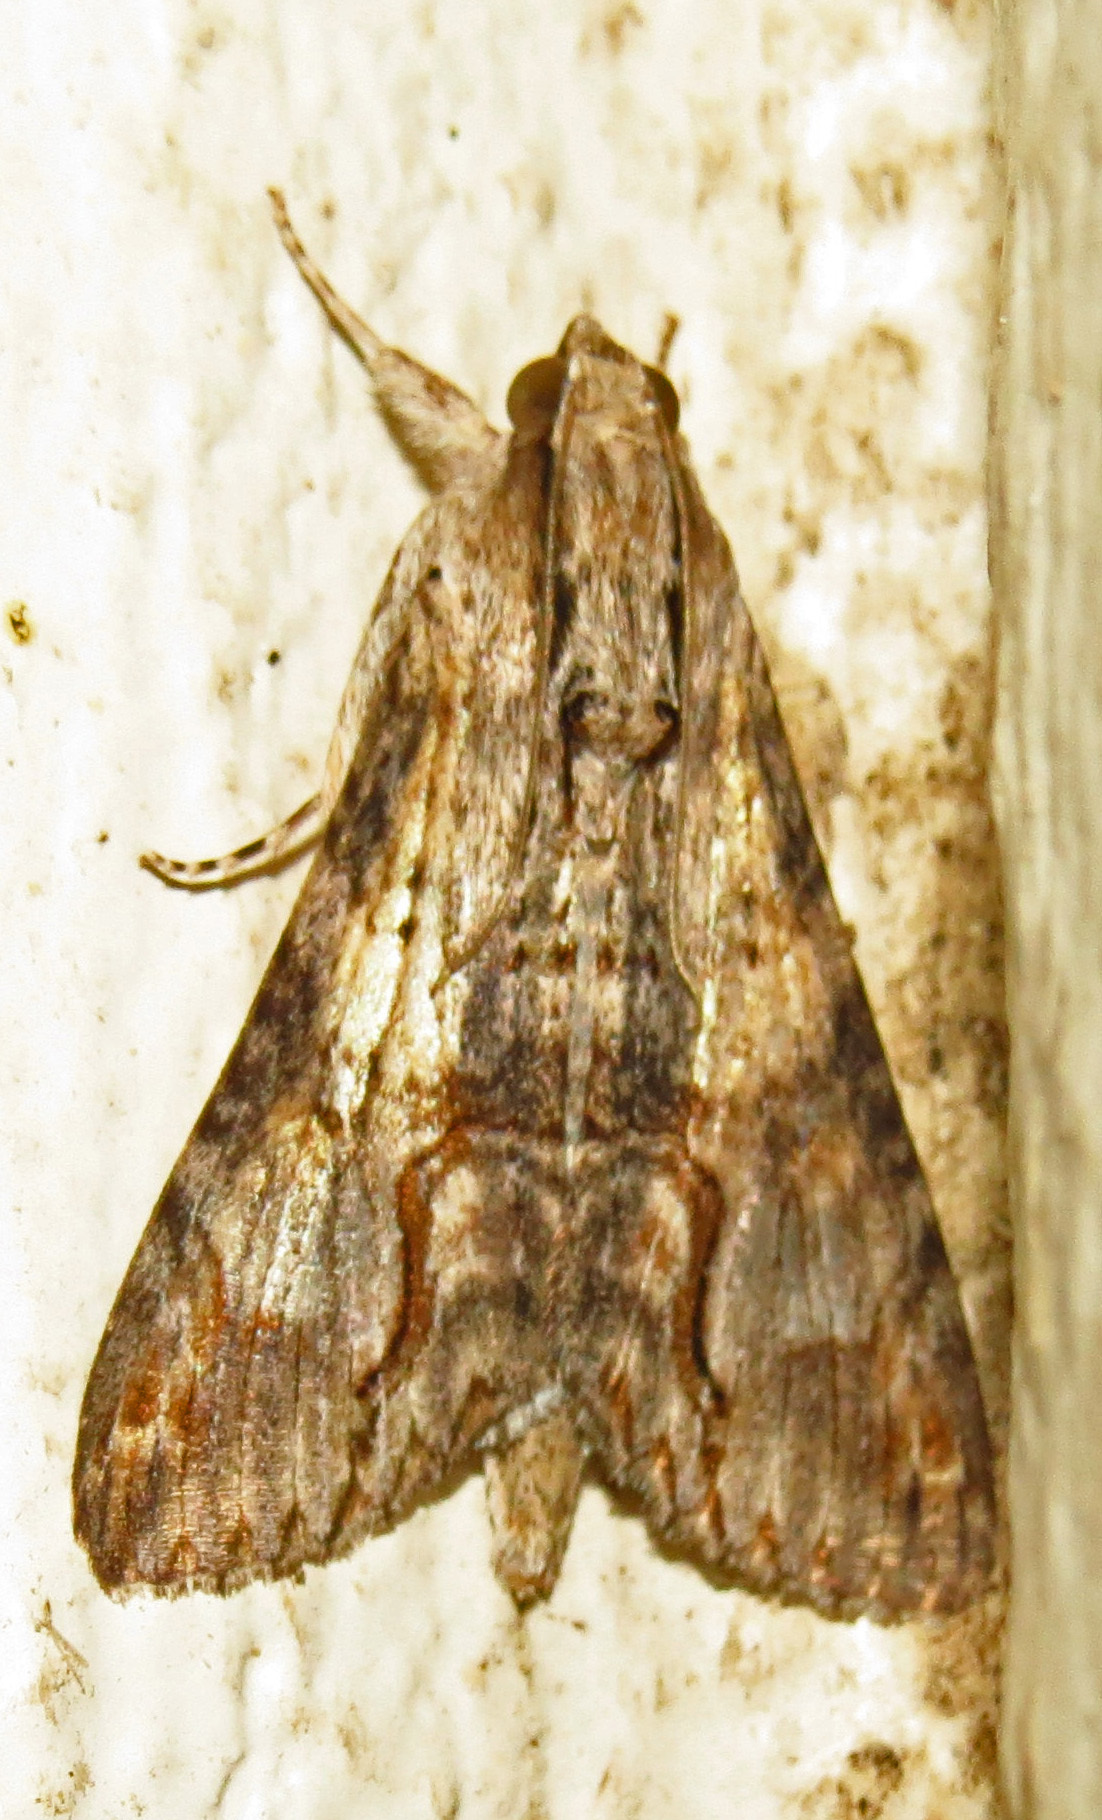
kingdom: Animalia
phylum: Arthropoda
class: Insecta
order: Lepidoptera
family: Erebidae
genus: Melipotis
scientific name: Melipotis acontioides
